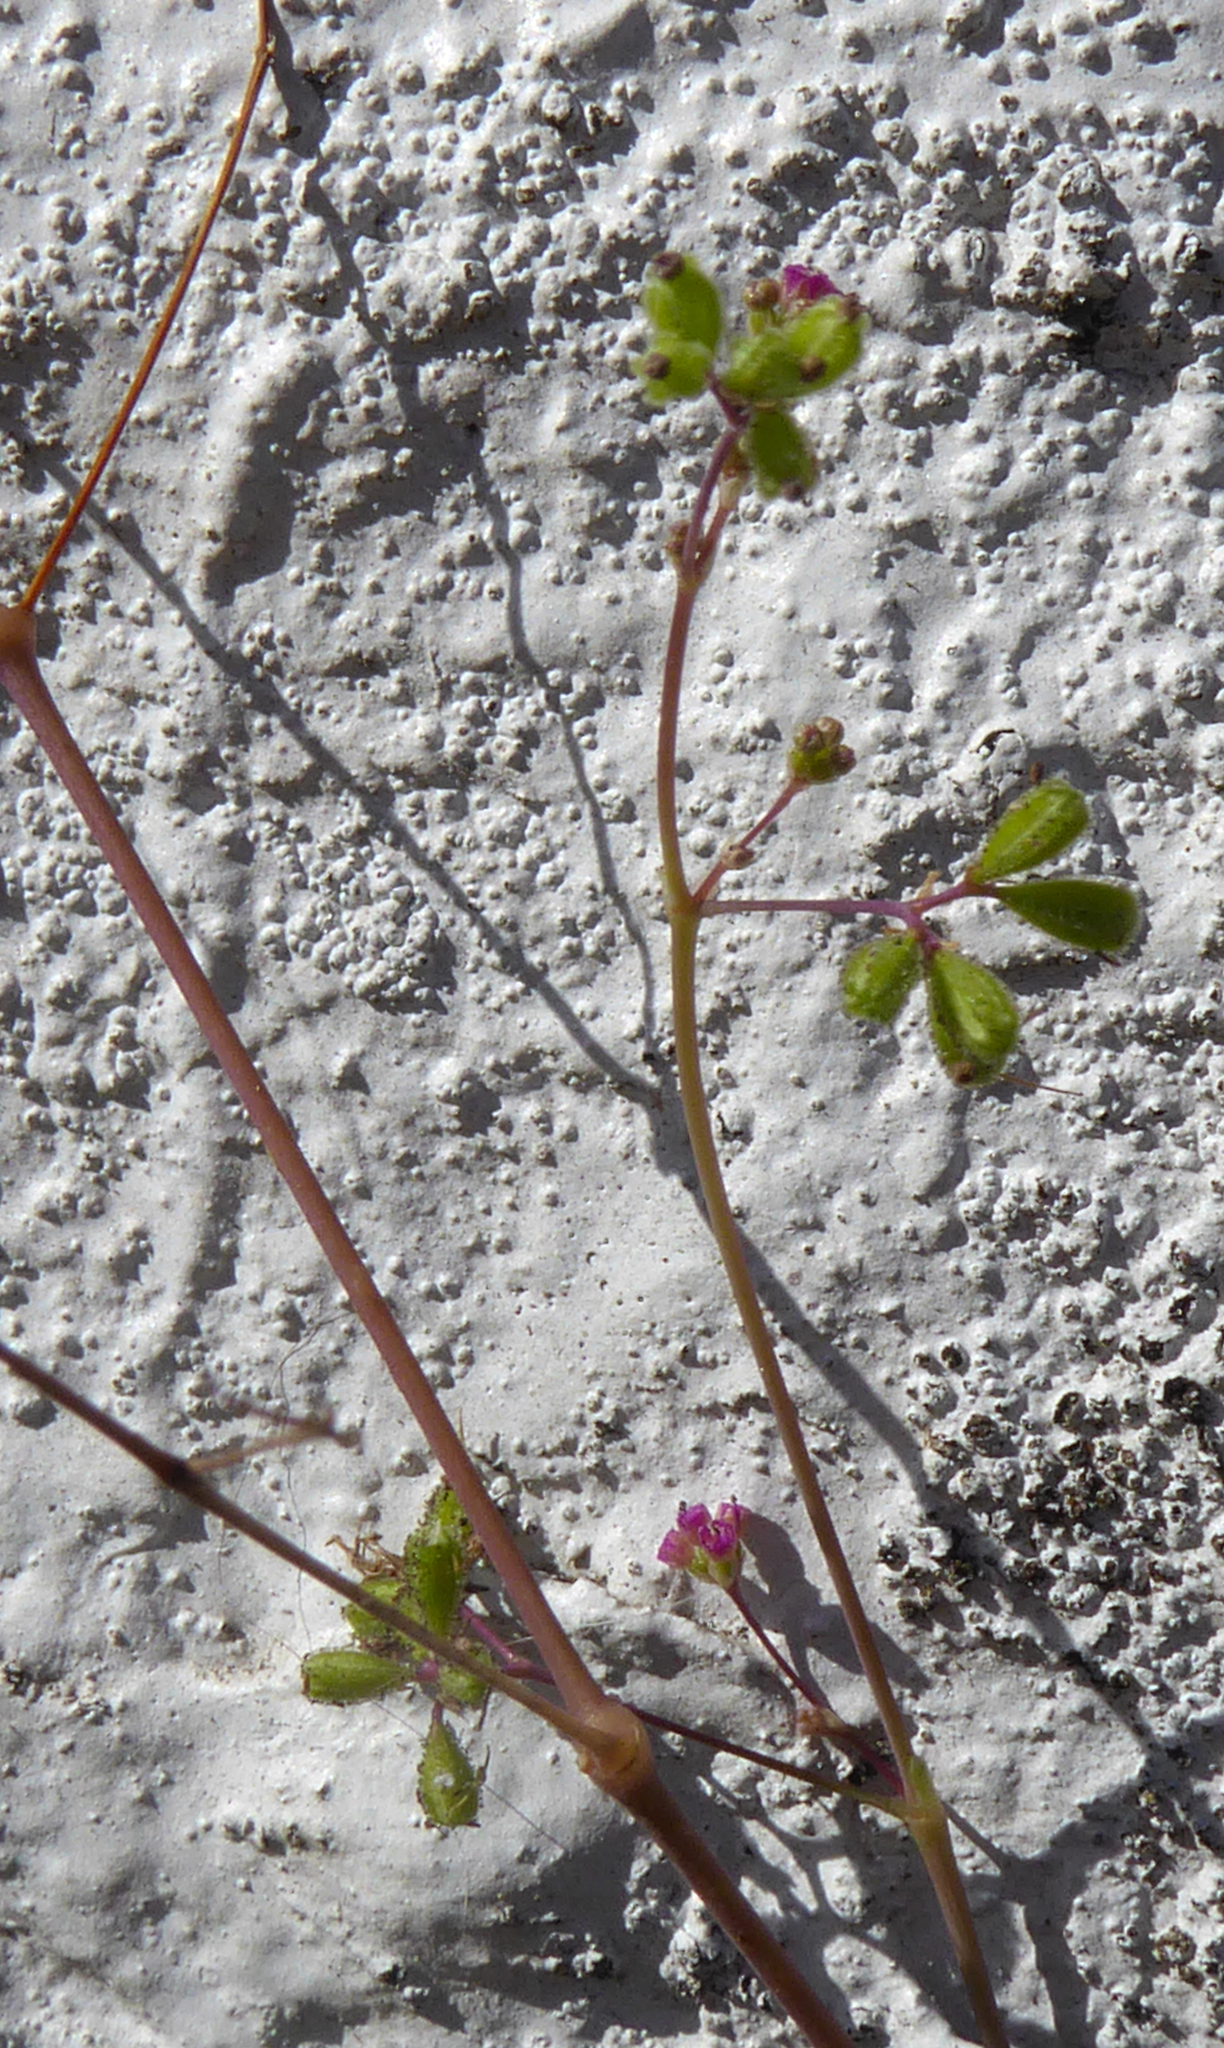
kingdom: Plantae
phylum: Tracheophyta
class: Magnoliopsida
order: Caryophyllales
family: Nyctaginaceae
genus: Boerhavia
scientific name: Boerhavia coccinea
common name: Scarlet spiderling
